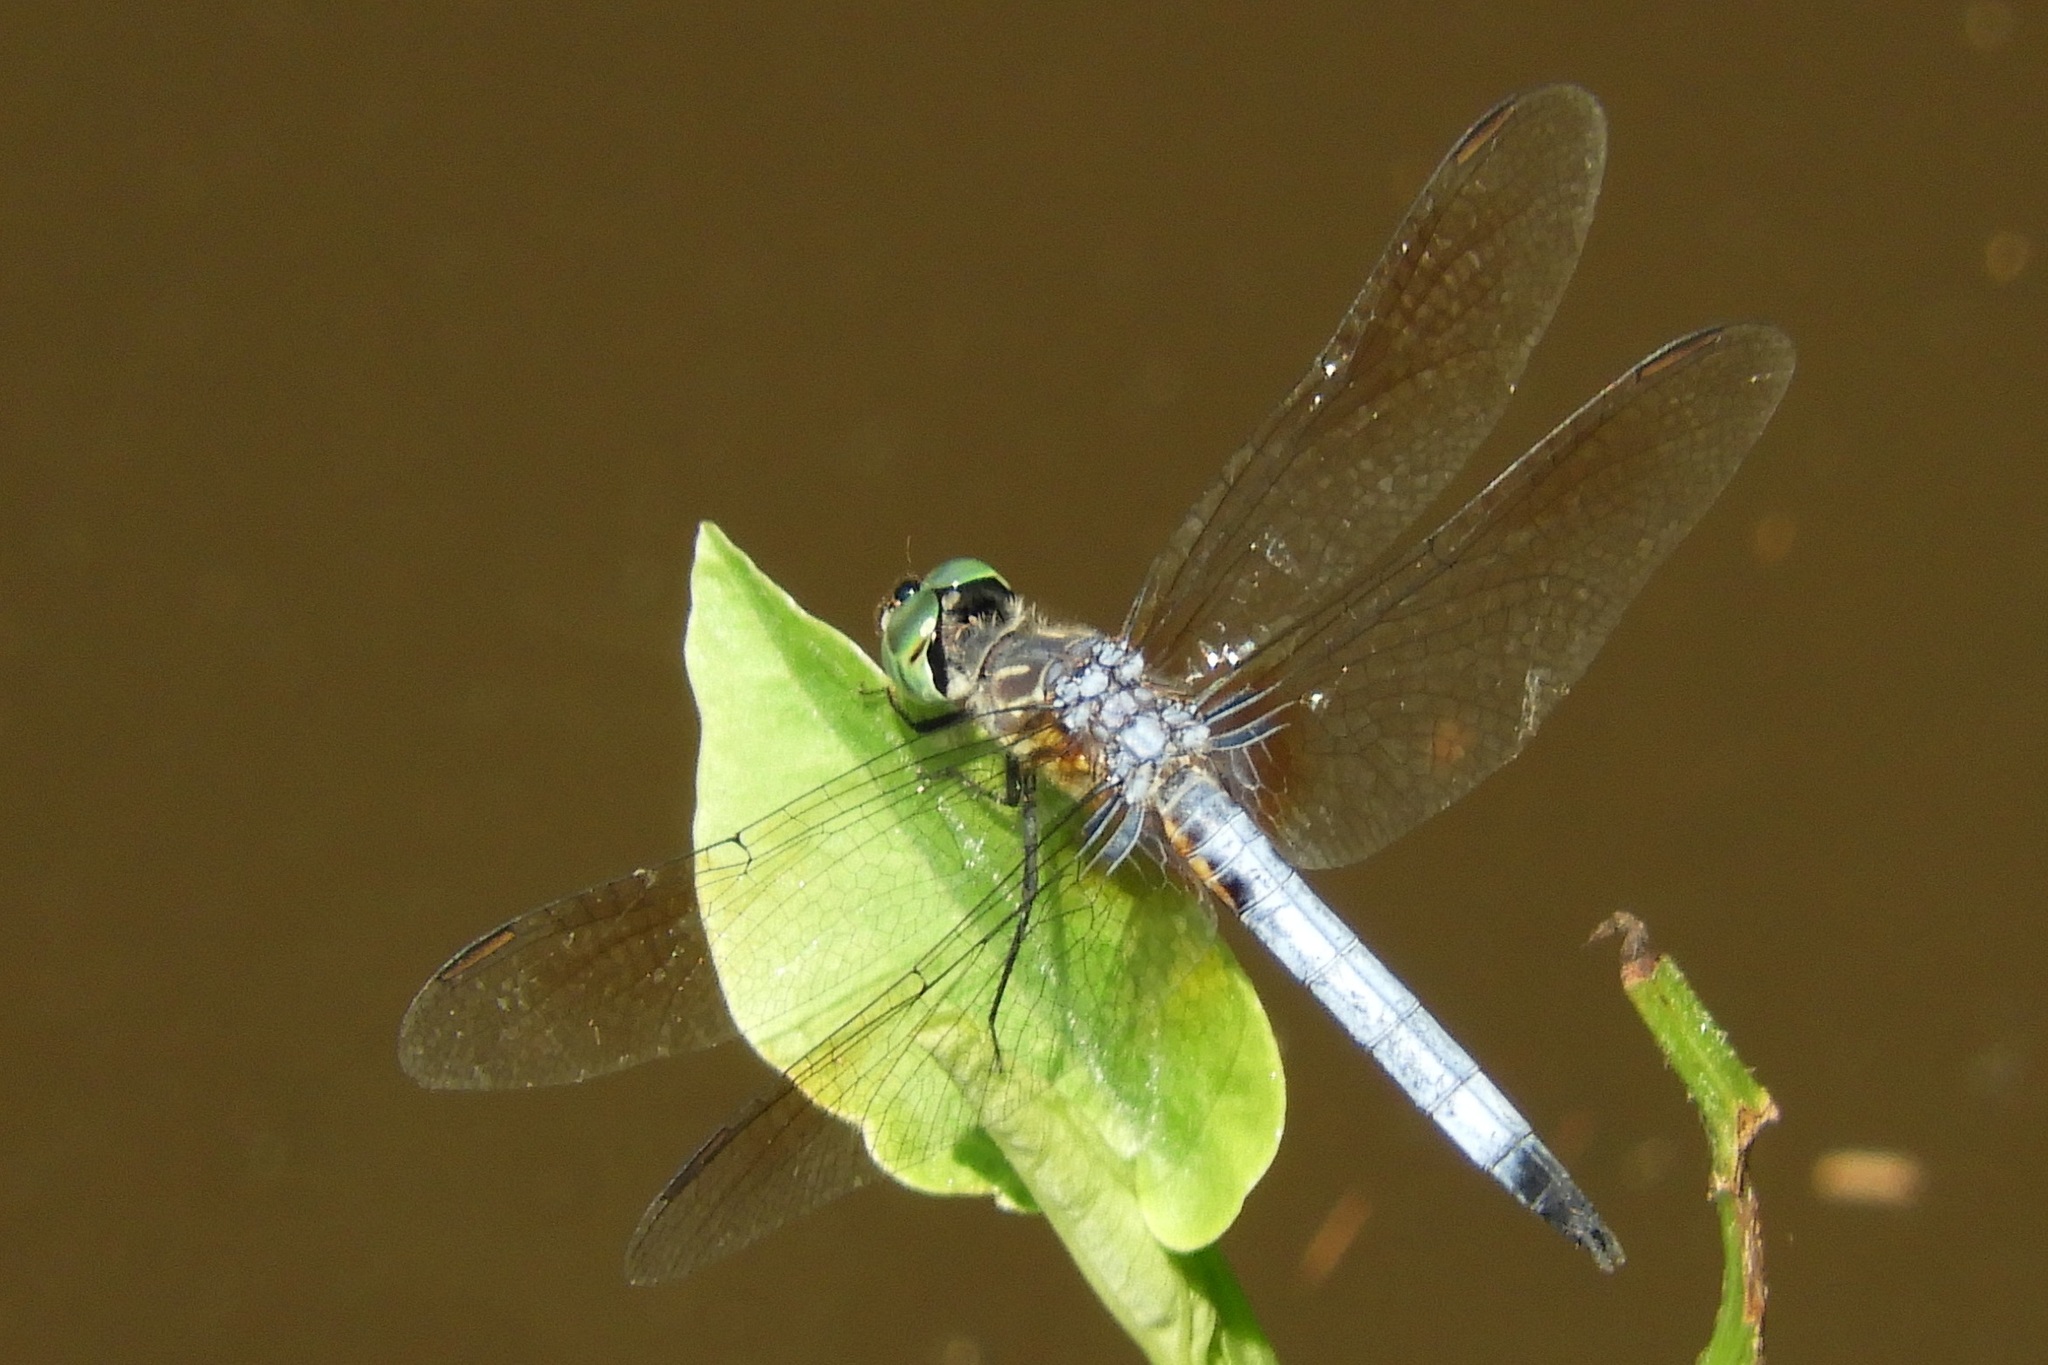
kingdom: Animalia
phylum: Arthropoda
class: Insecta
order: Odonata
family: Libellulidae
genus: Pachydiplax
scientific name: Pachydiplax longipennis
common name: Blue dasher
